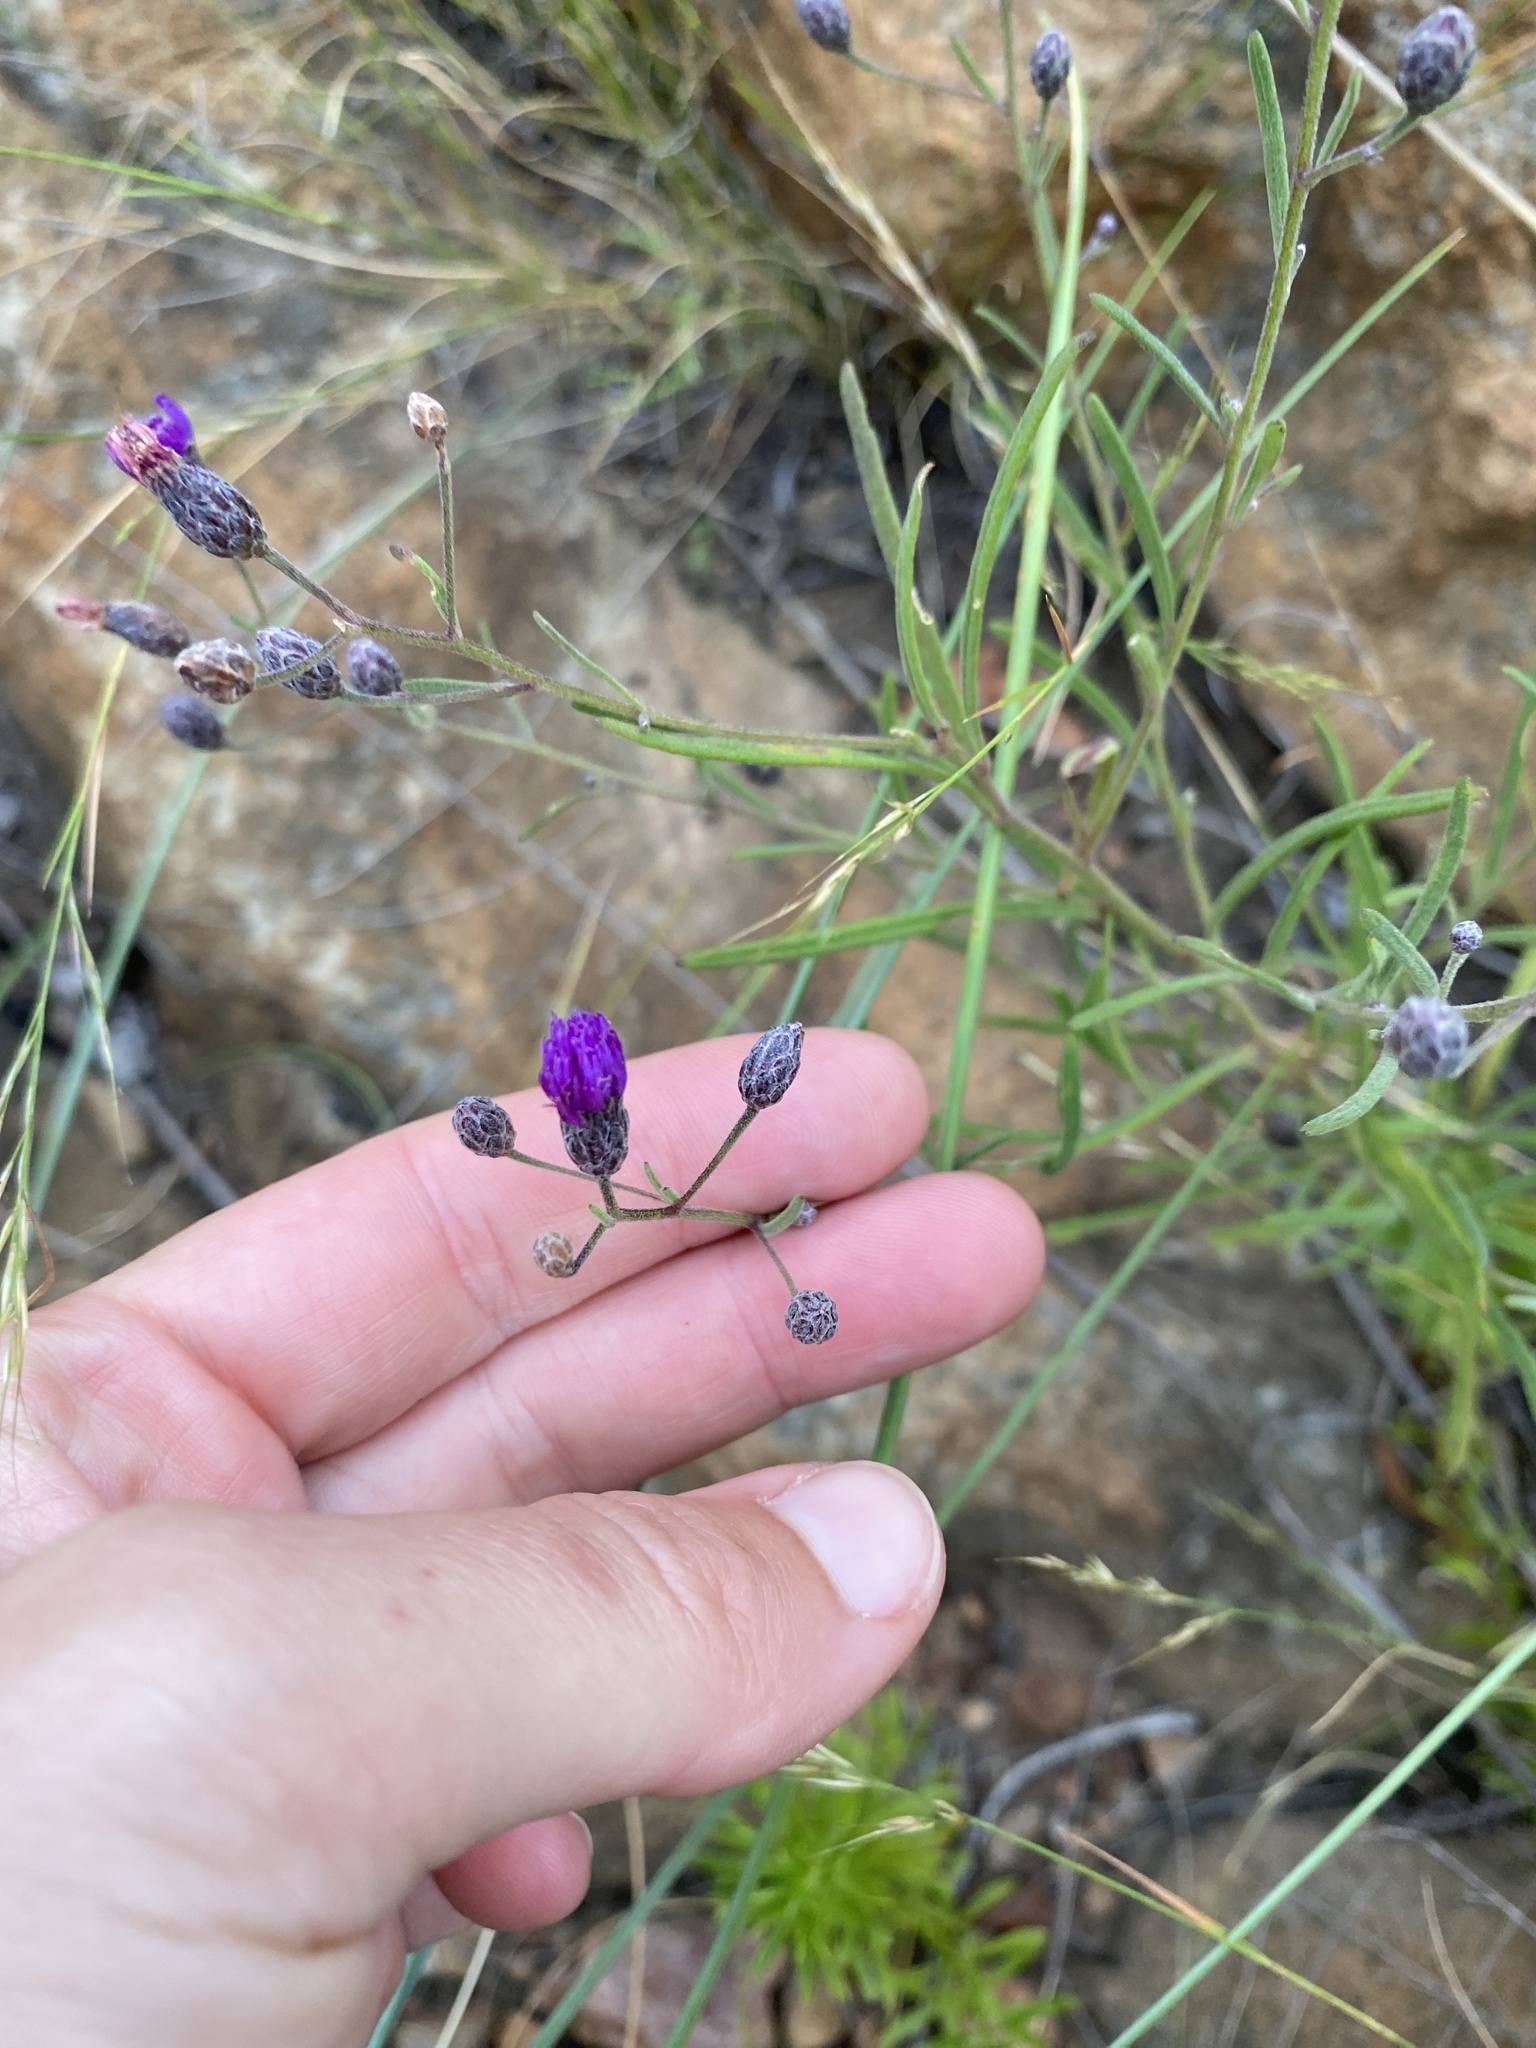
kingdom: Plantae
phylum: Tracheophyta
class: Magnoliopsida
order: Asterales
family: Asteraceae
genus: Crystallopollen
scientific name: Crystallopollen angustifolium
